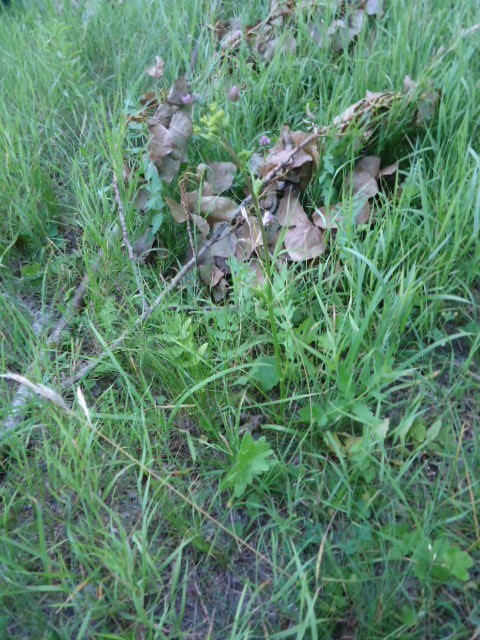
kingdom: Plantae
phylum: Tracheophyta
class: Magnoliopsida
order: Apiales
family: Apiaceae
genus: Pastinaca
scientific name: Pastinaca sativa
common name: Wild parsnip
